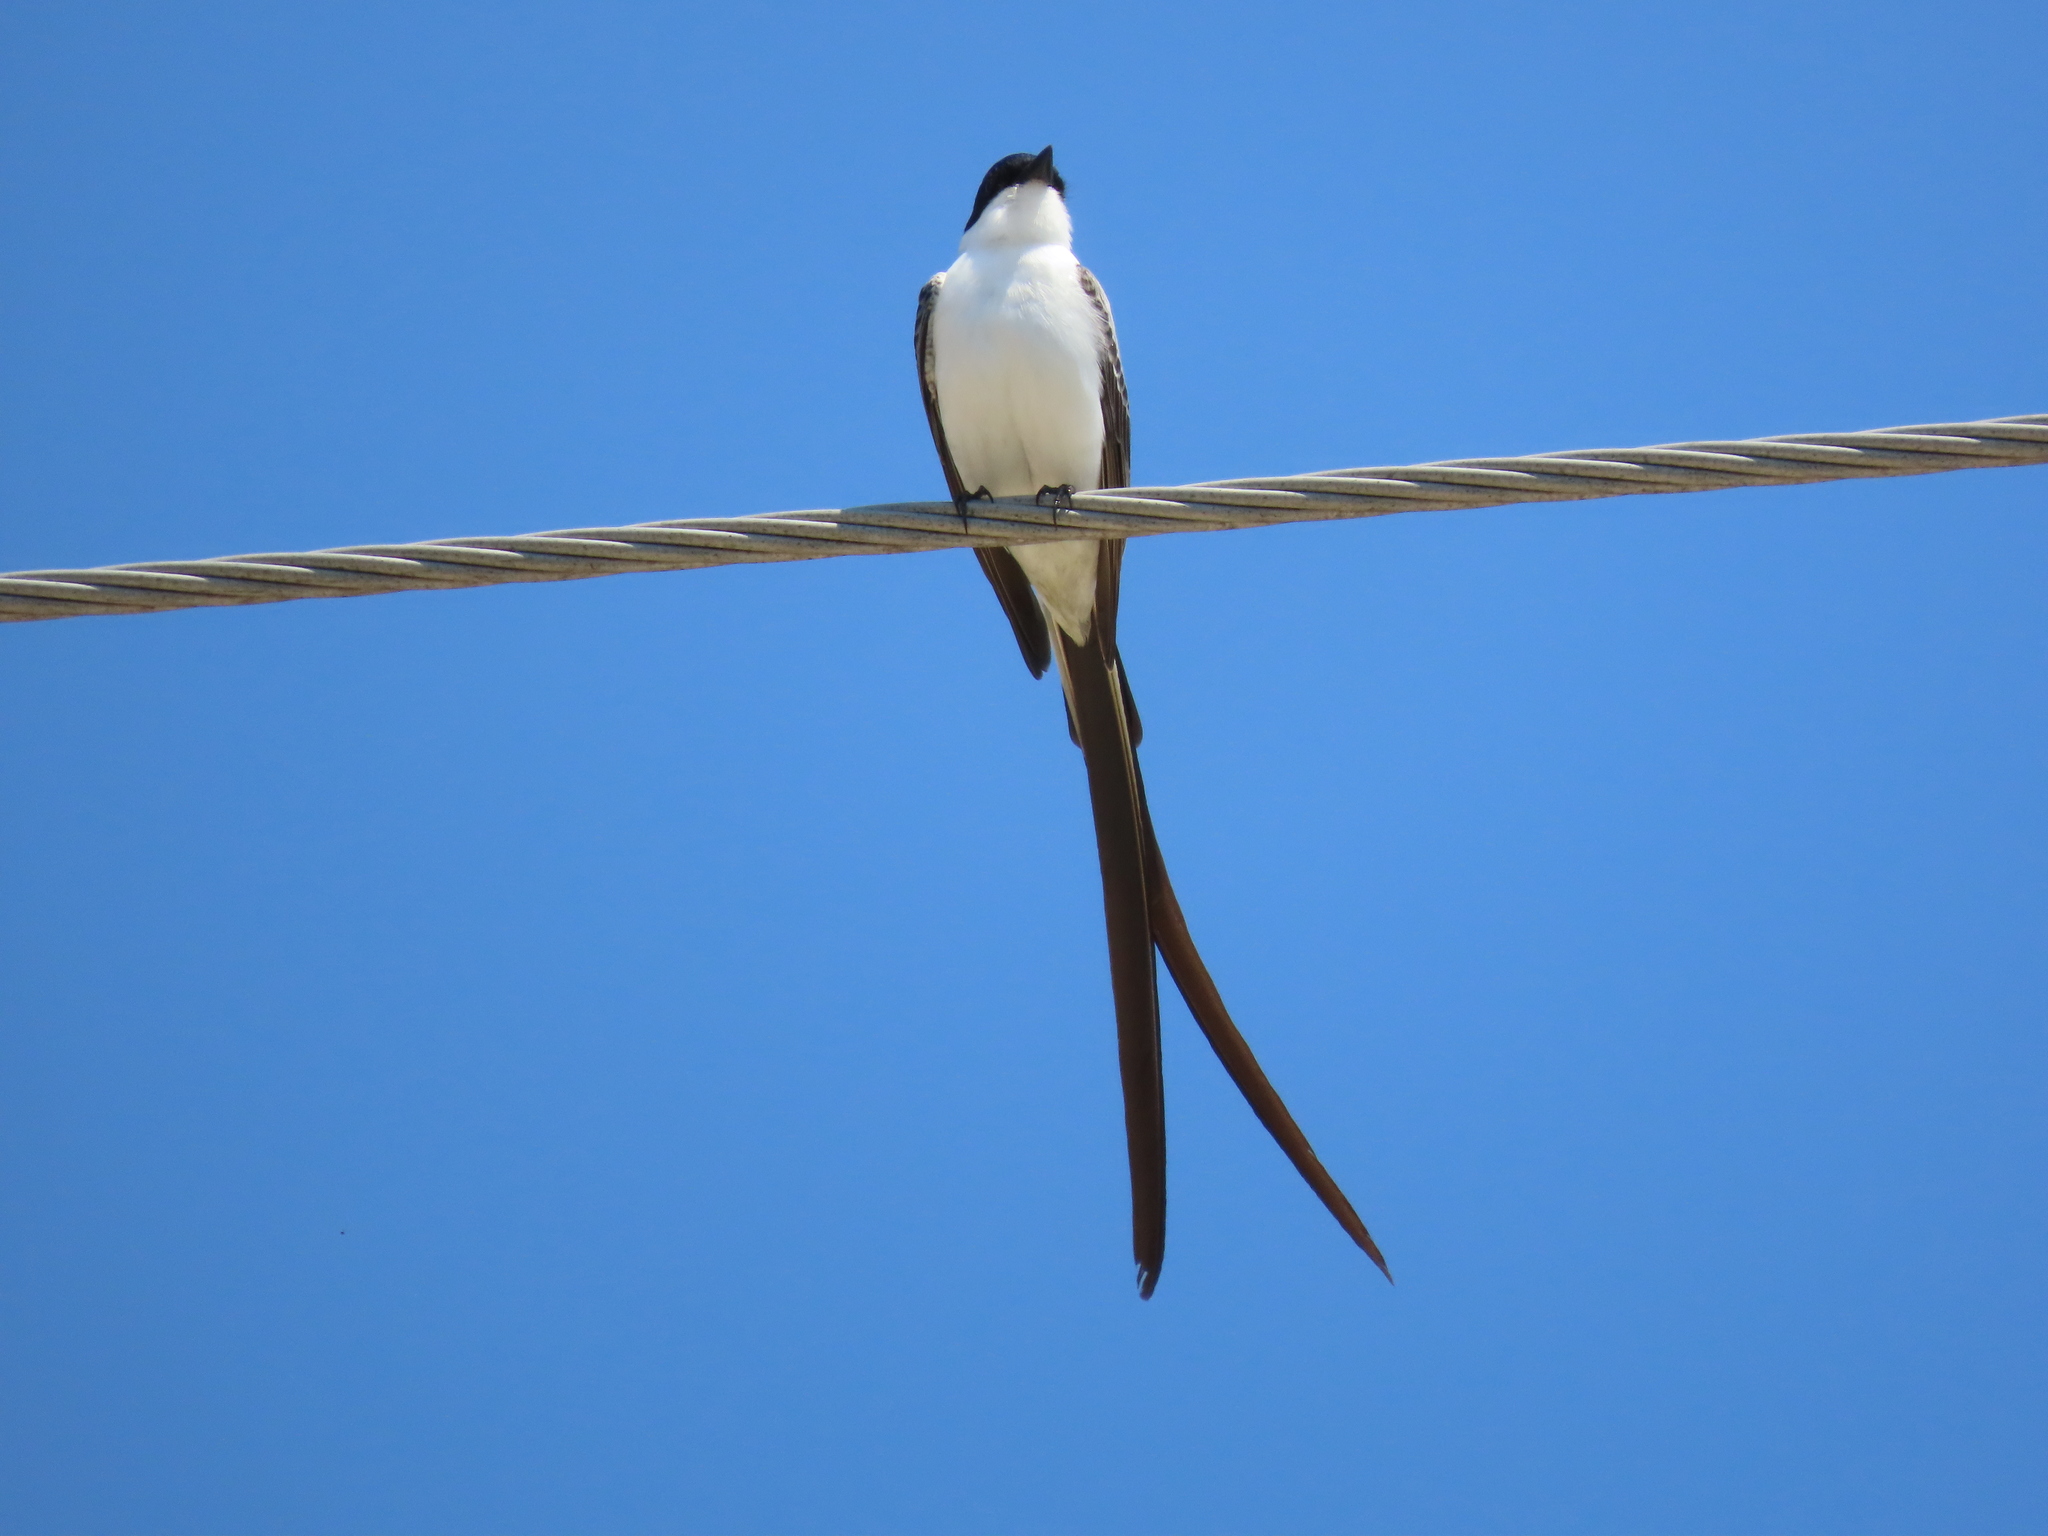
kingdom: Animalia
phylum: Chordata
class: Aves
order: Passeriformes
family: Tyrannidae
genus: Tyrannus
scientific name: Tyrannus savana
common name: Fork-tailed flycatcher
